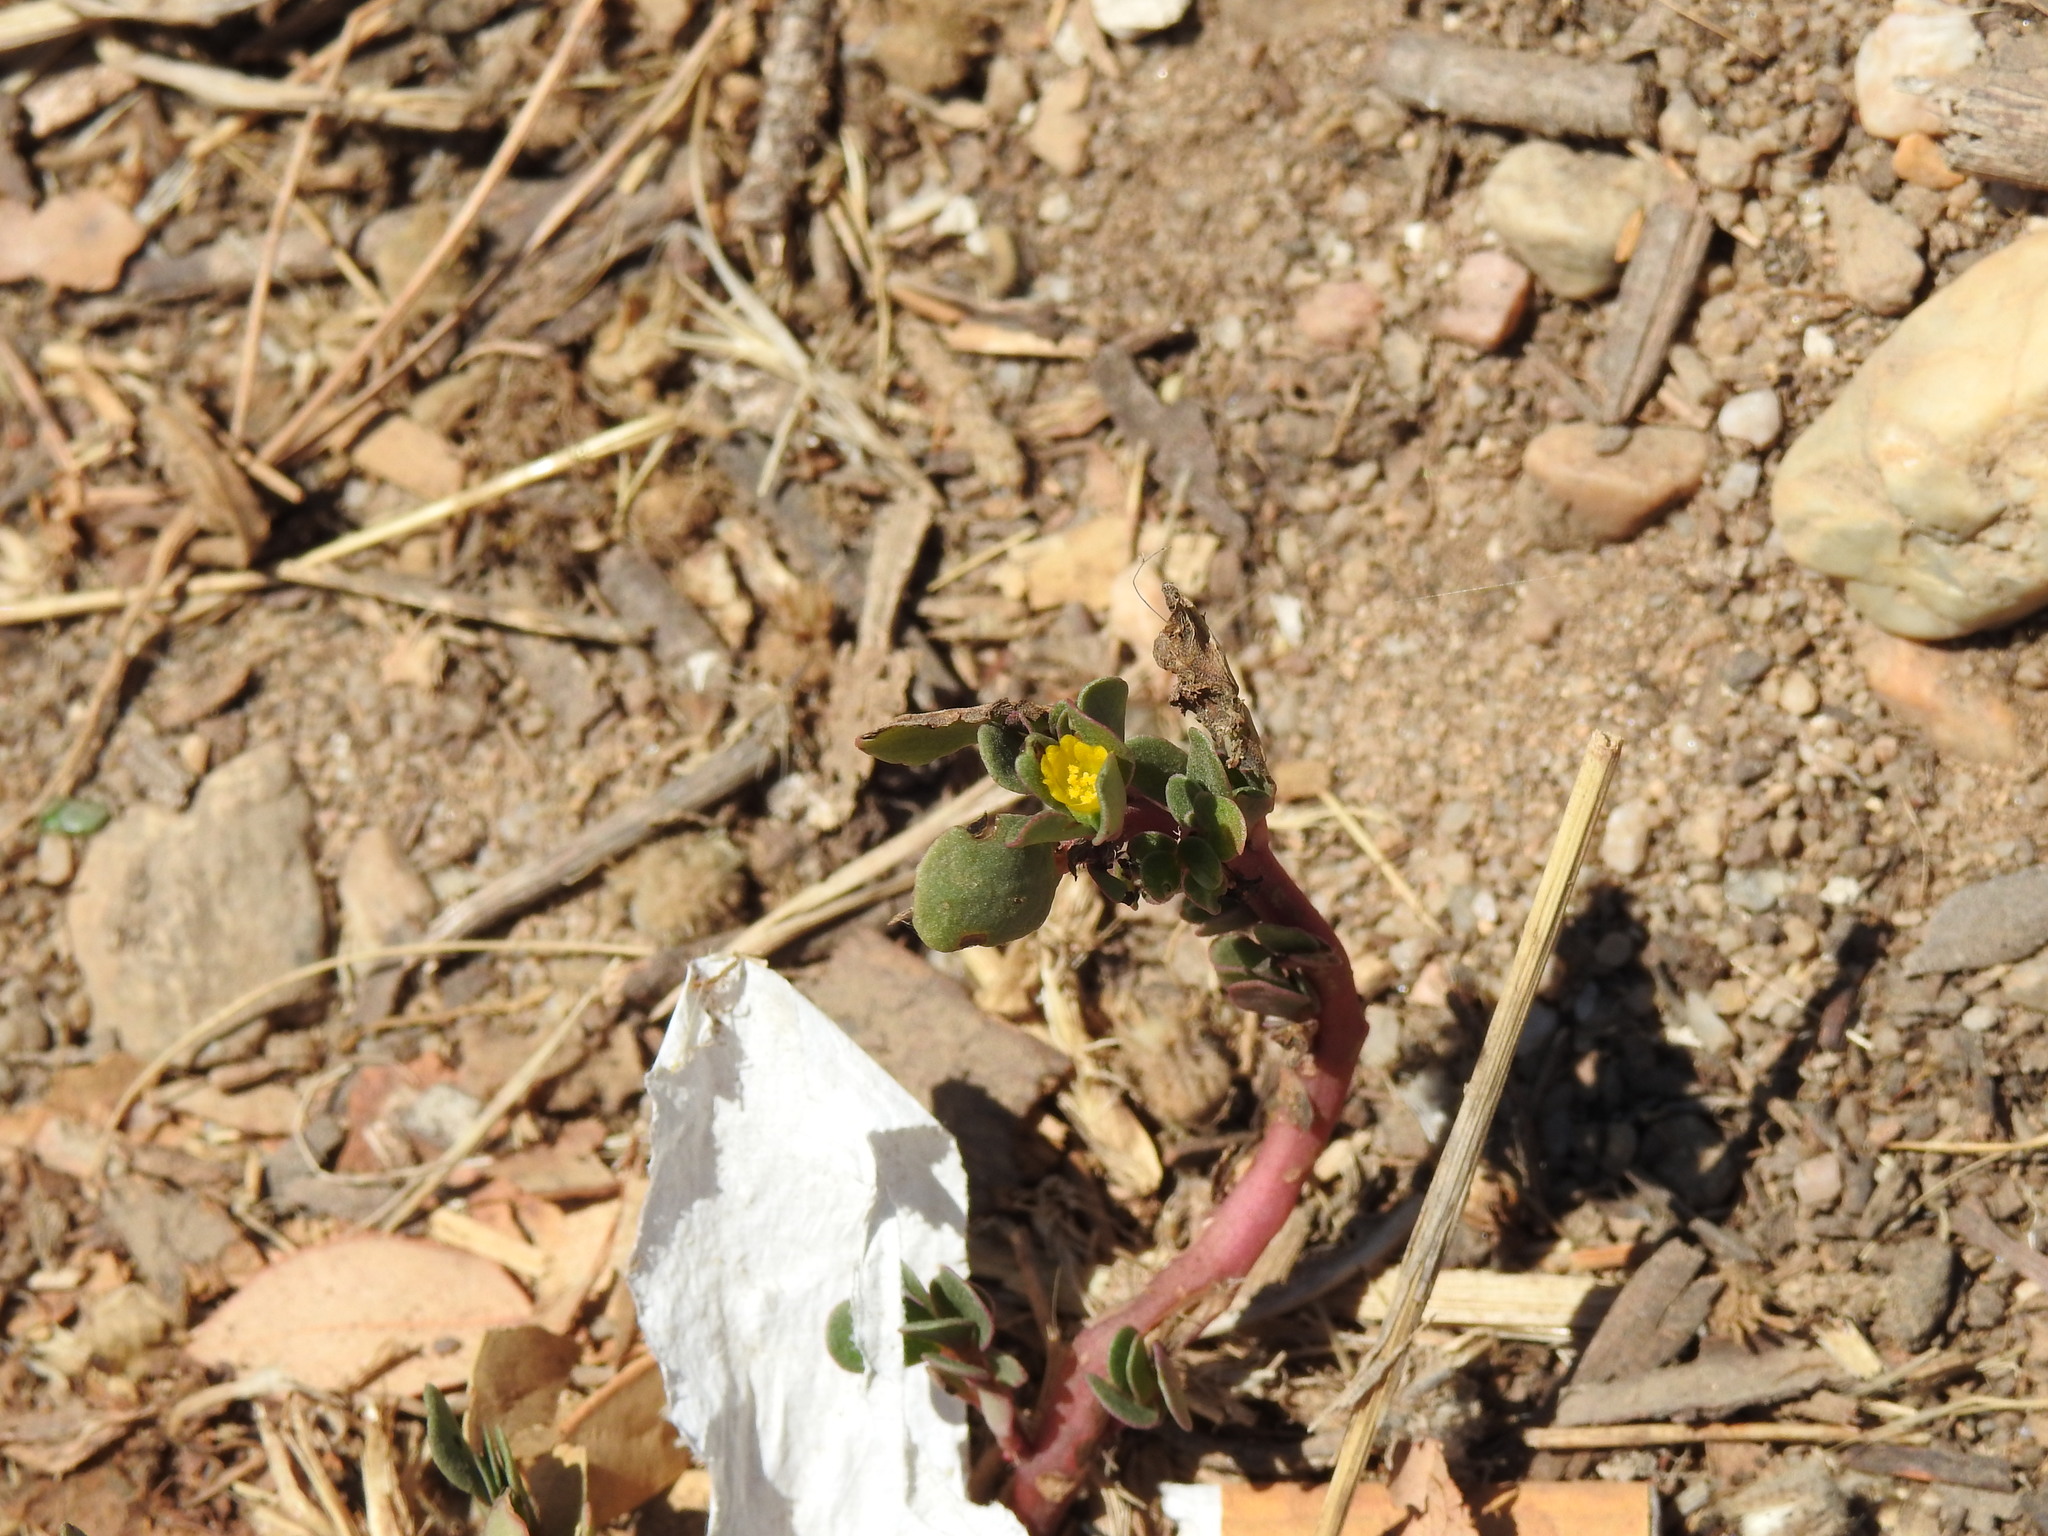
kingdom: Plantae
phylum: Tracheophyta
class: Magnoliopsida
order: Caryophyllales
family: Portulacaceae
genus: Portulaca
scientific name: Portulaca oleracea
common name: Common purslane
